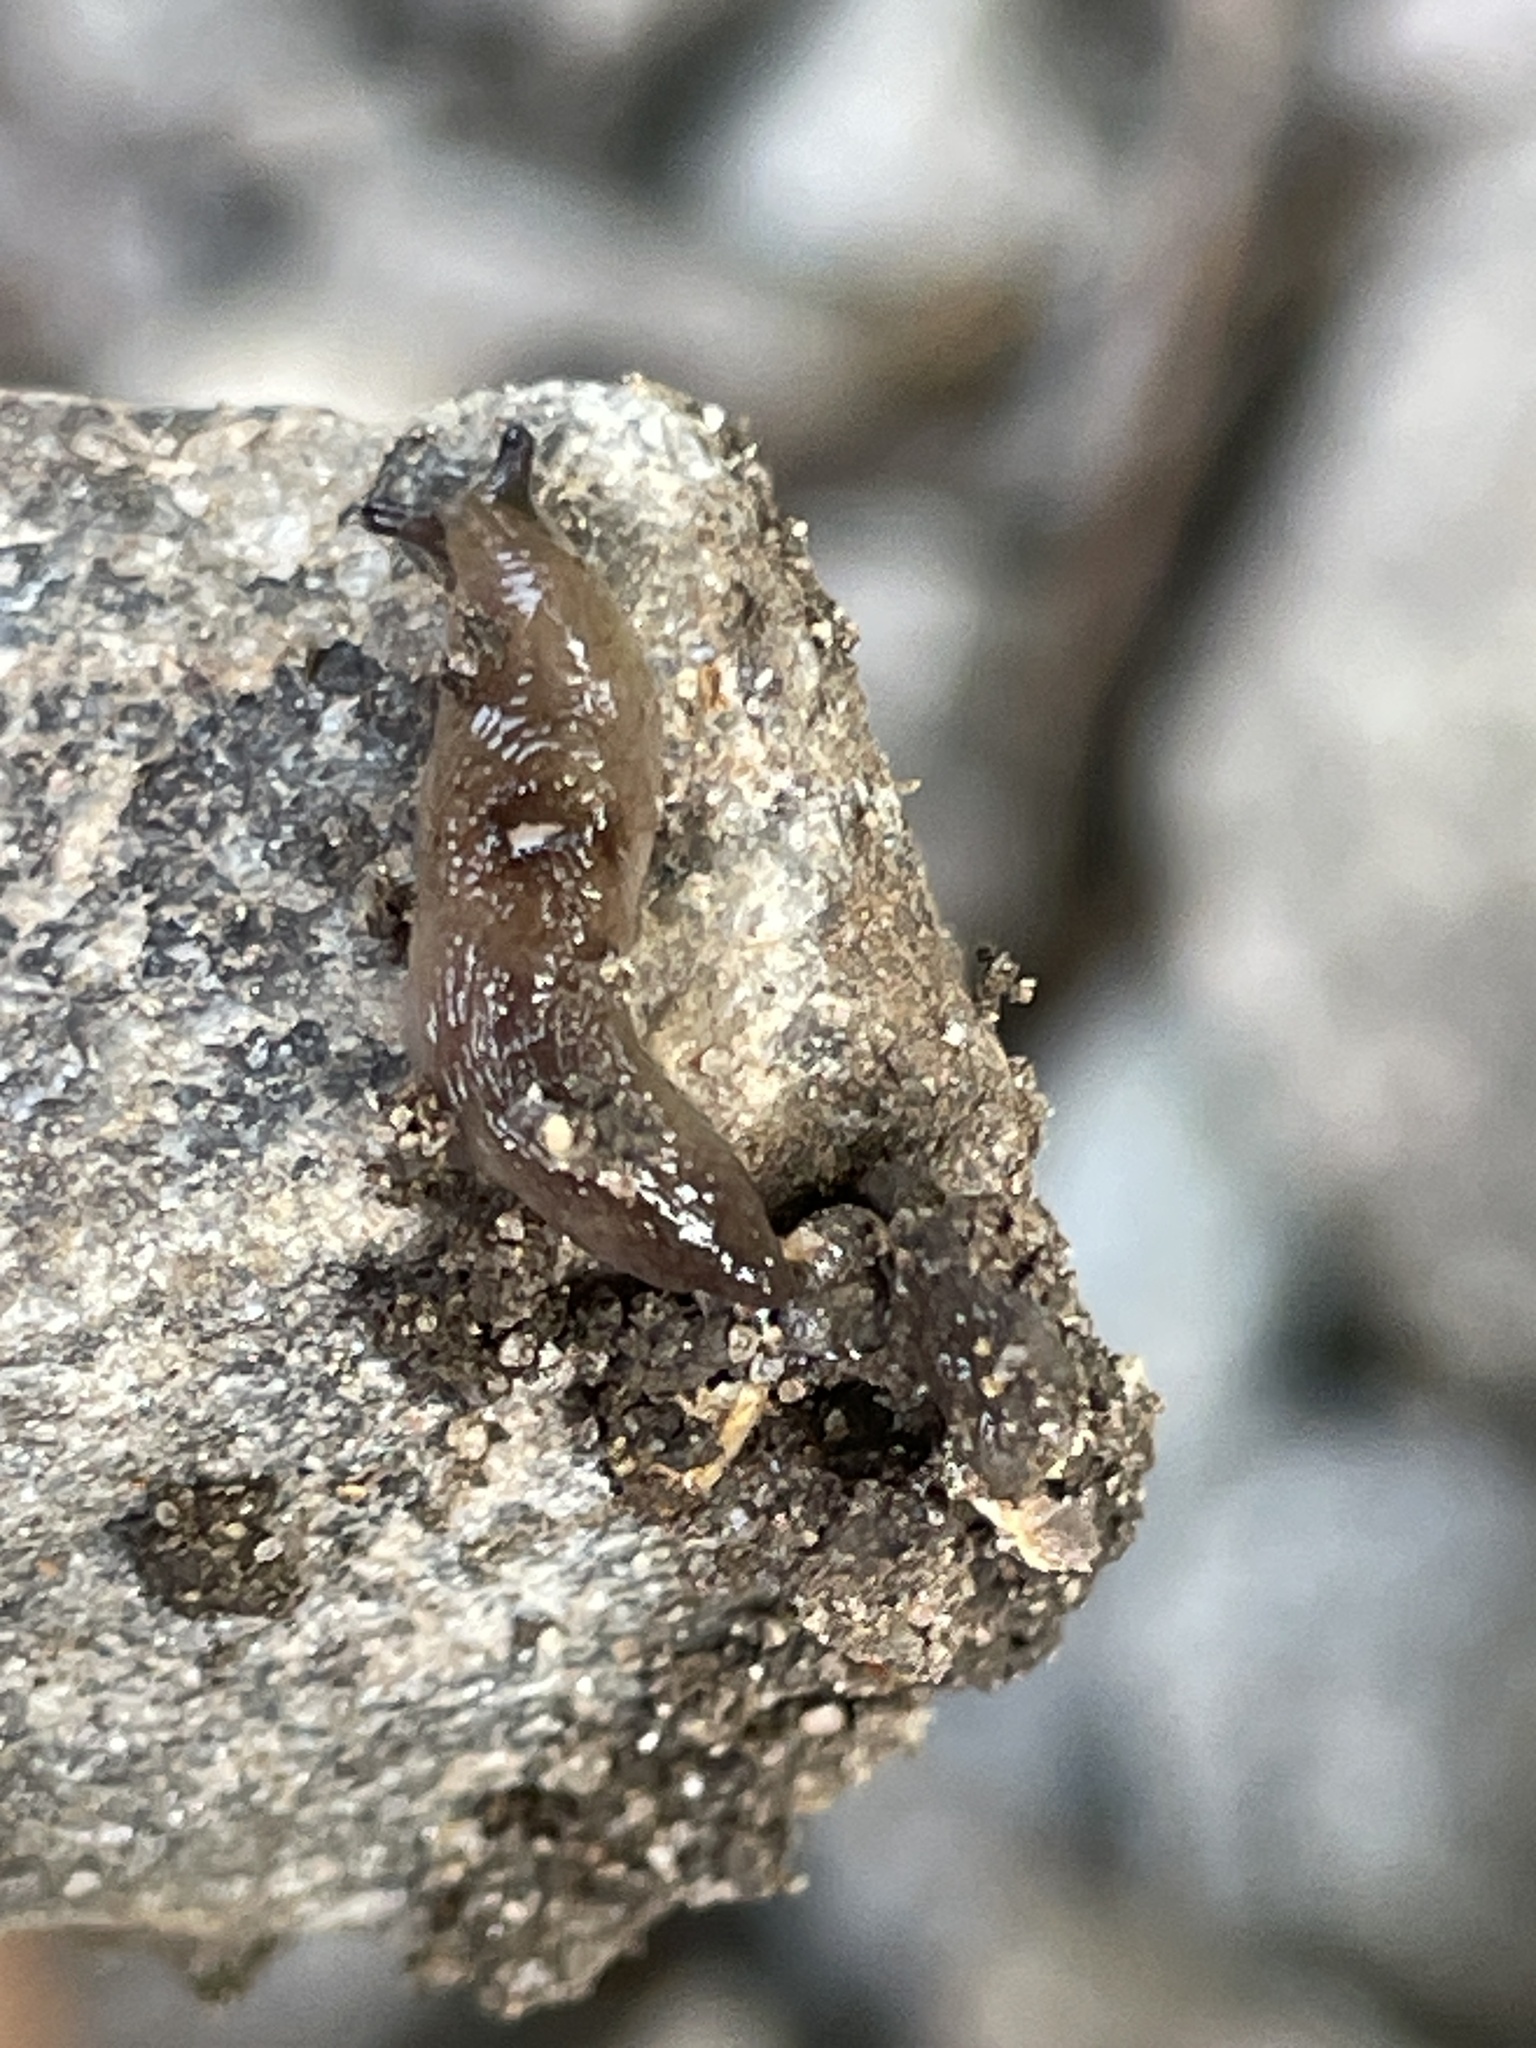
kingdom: Animalia
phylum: Mollusca
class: Gastropoda
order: Stylommatophora
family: Agriolimacidae
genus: Deroceras
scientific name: Deroceras laeve
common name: Marsh slug
